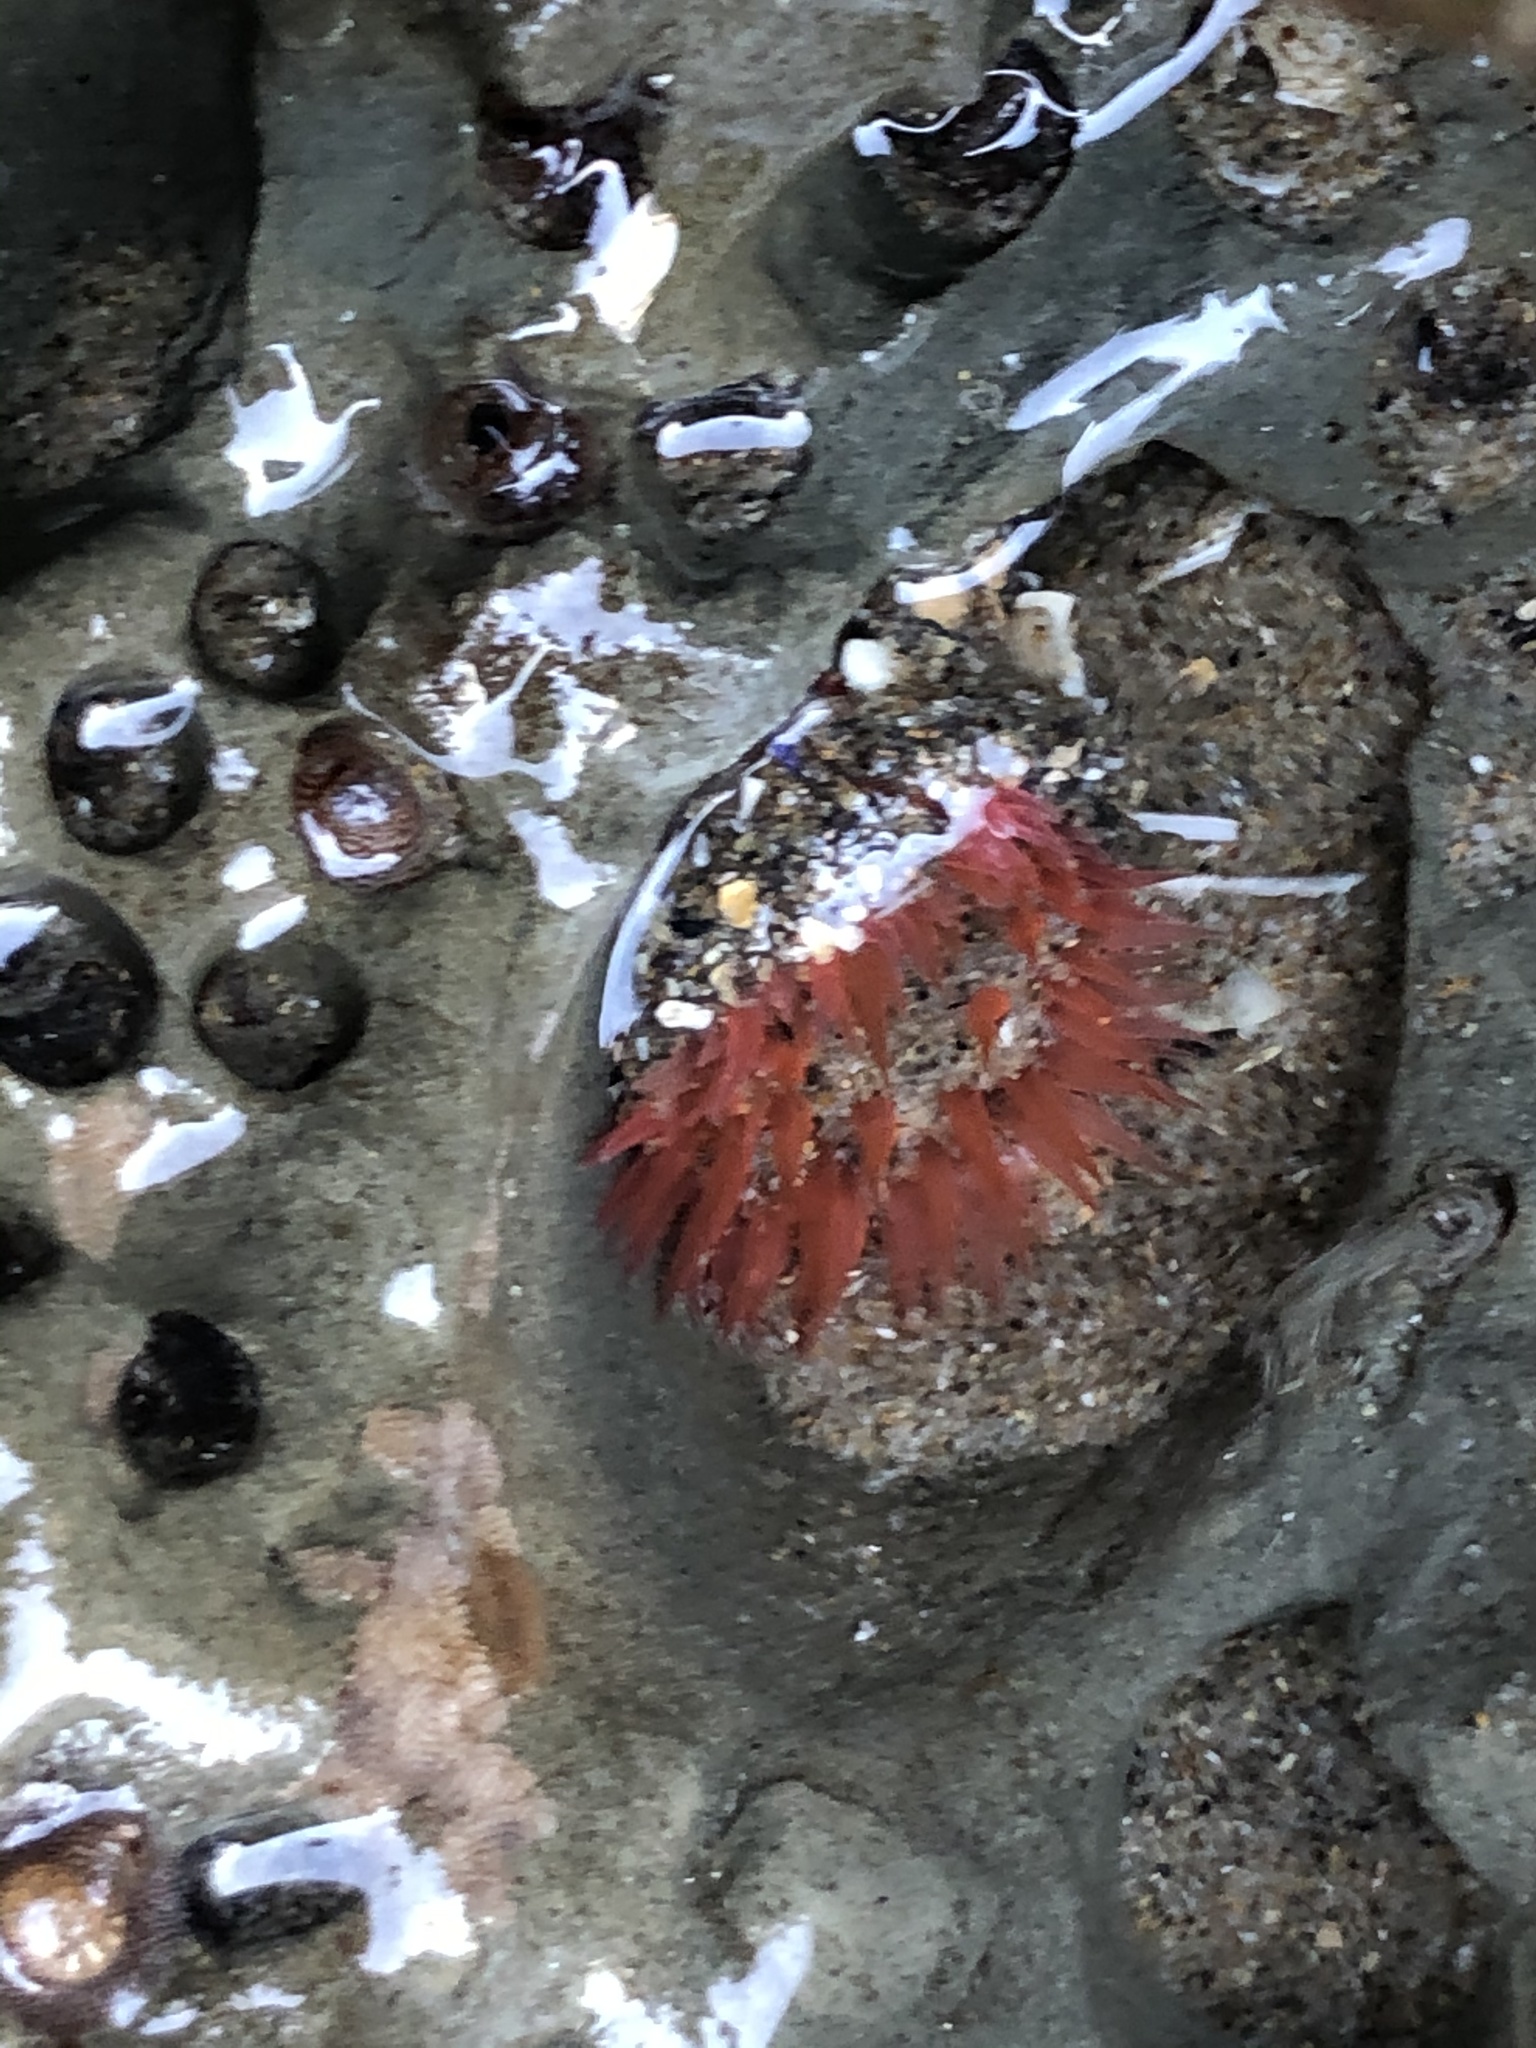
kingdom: Animalia
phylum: Cnidaria
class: Anthozoa
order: Actiniaria
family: Actiniidae
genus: Anthopleura
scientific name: Anthopleura artemisia
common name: Buried sea anemone
